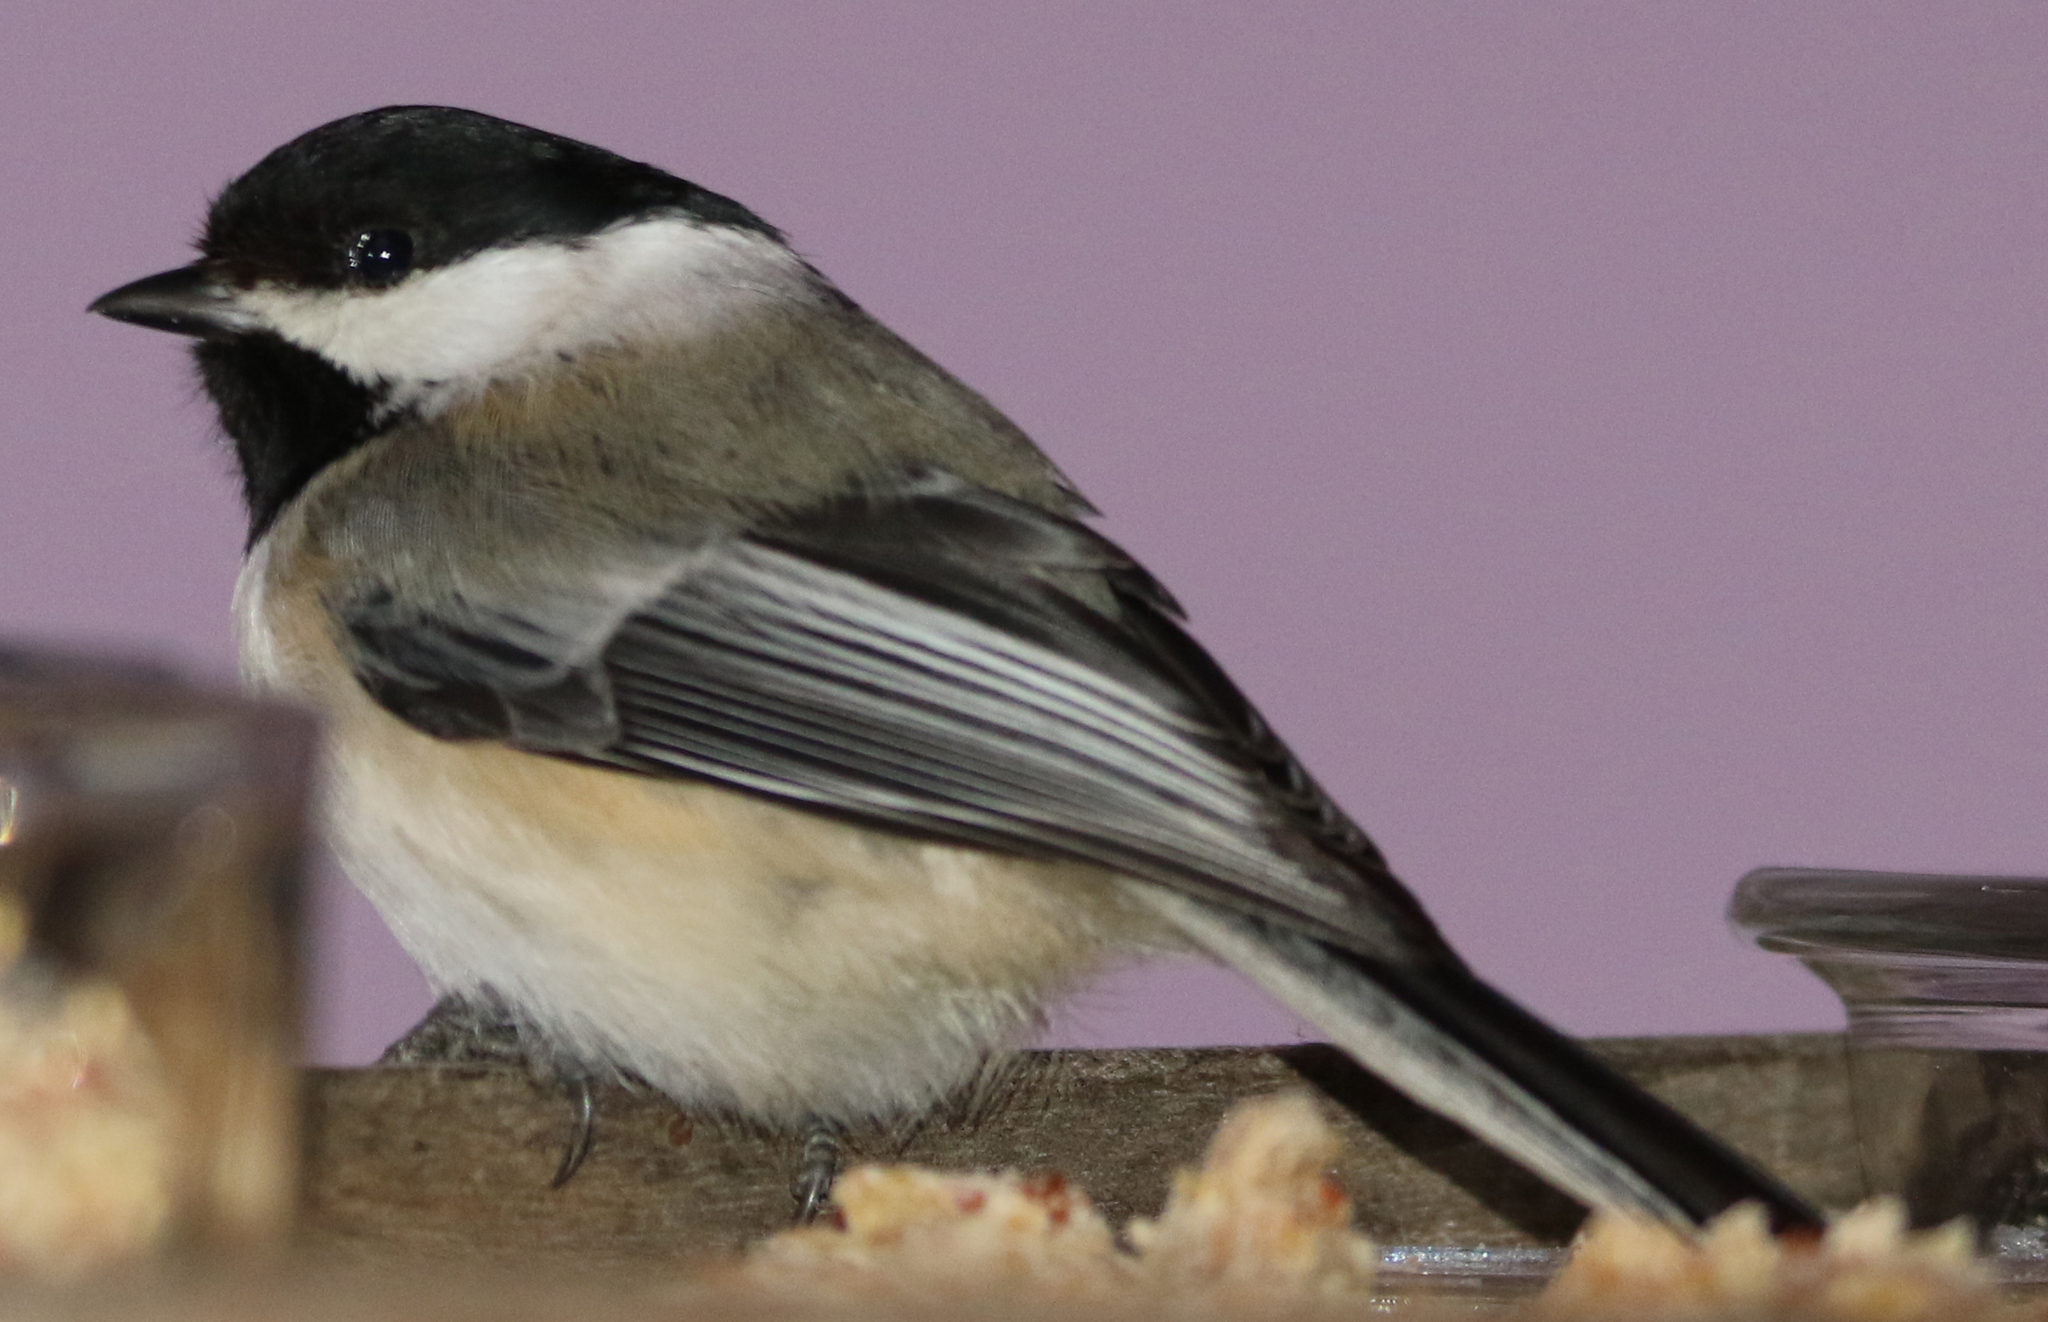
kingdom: Animalia
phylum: Chordata
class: Aves
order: Passeriformes
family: Paridae
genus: Poecile
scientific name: Poecile atricapillus
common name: Black-capped chickadee
